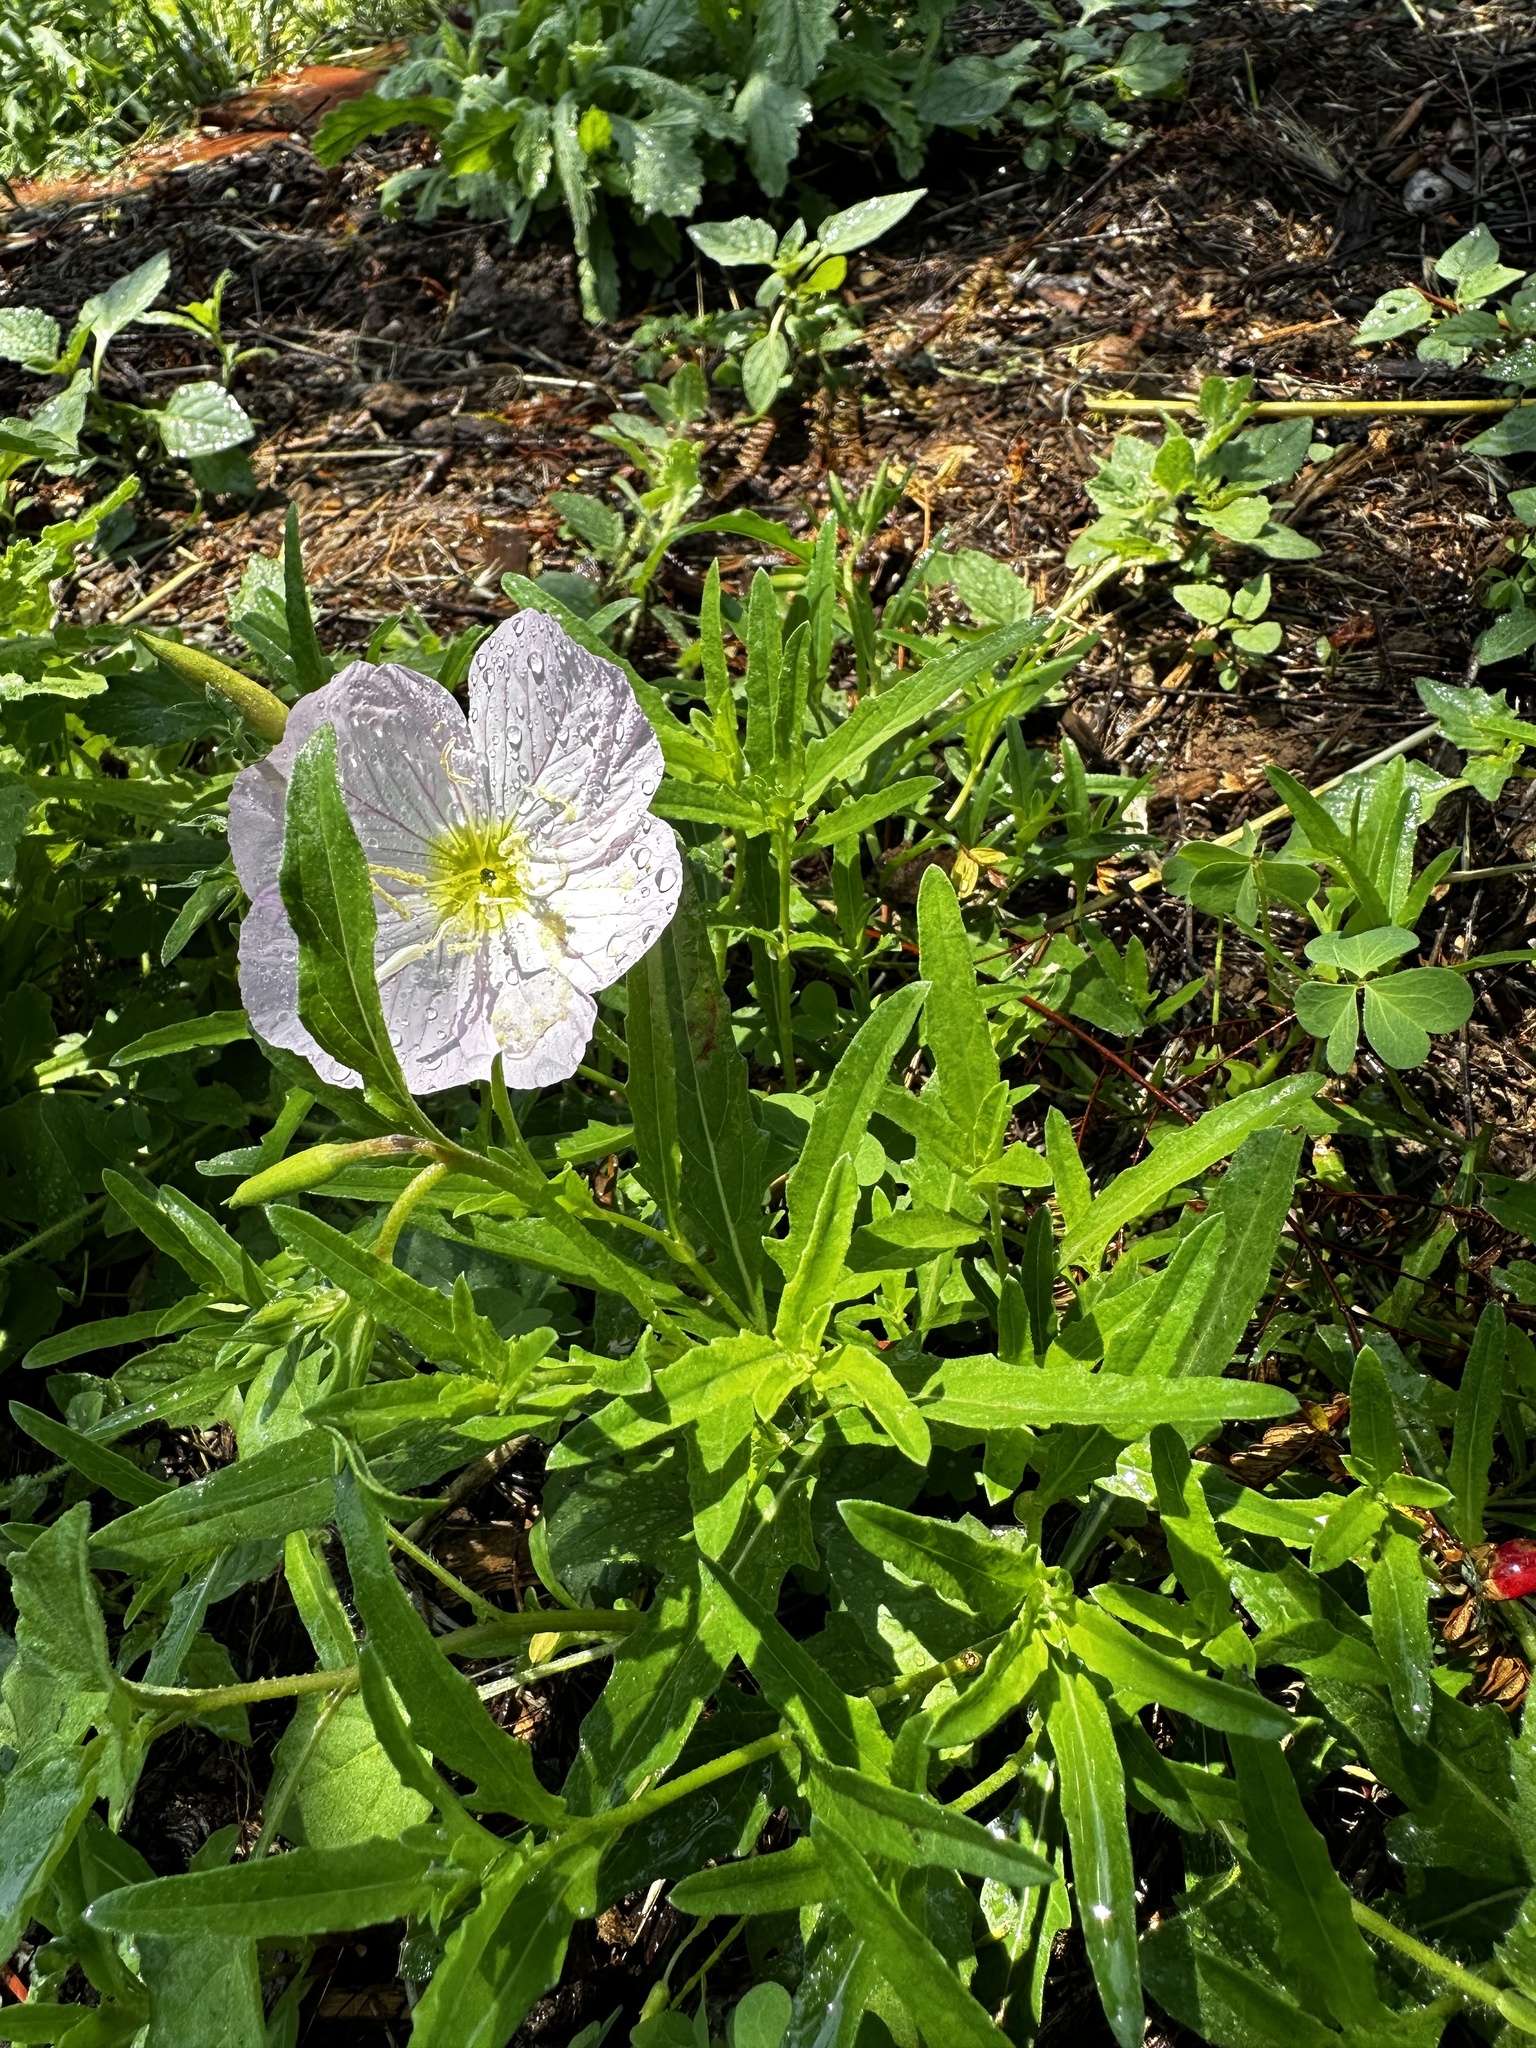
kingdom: Plantae
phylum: Tracheophyta
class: Magnoliopsida
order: Myrtales
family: Onagraceae
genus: Oenothera
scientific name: Oenothera speciosa
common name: White evening-primrose
